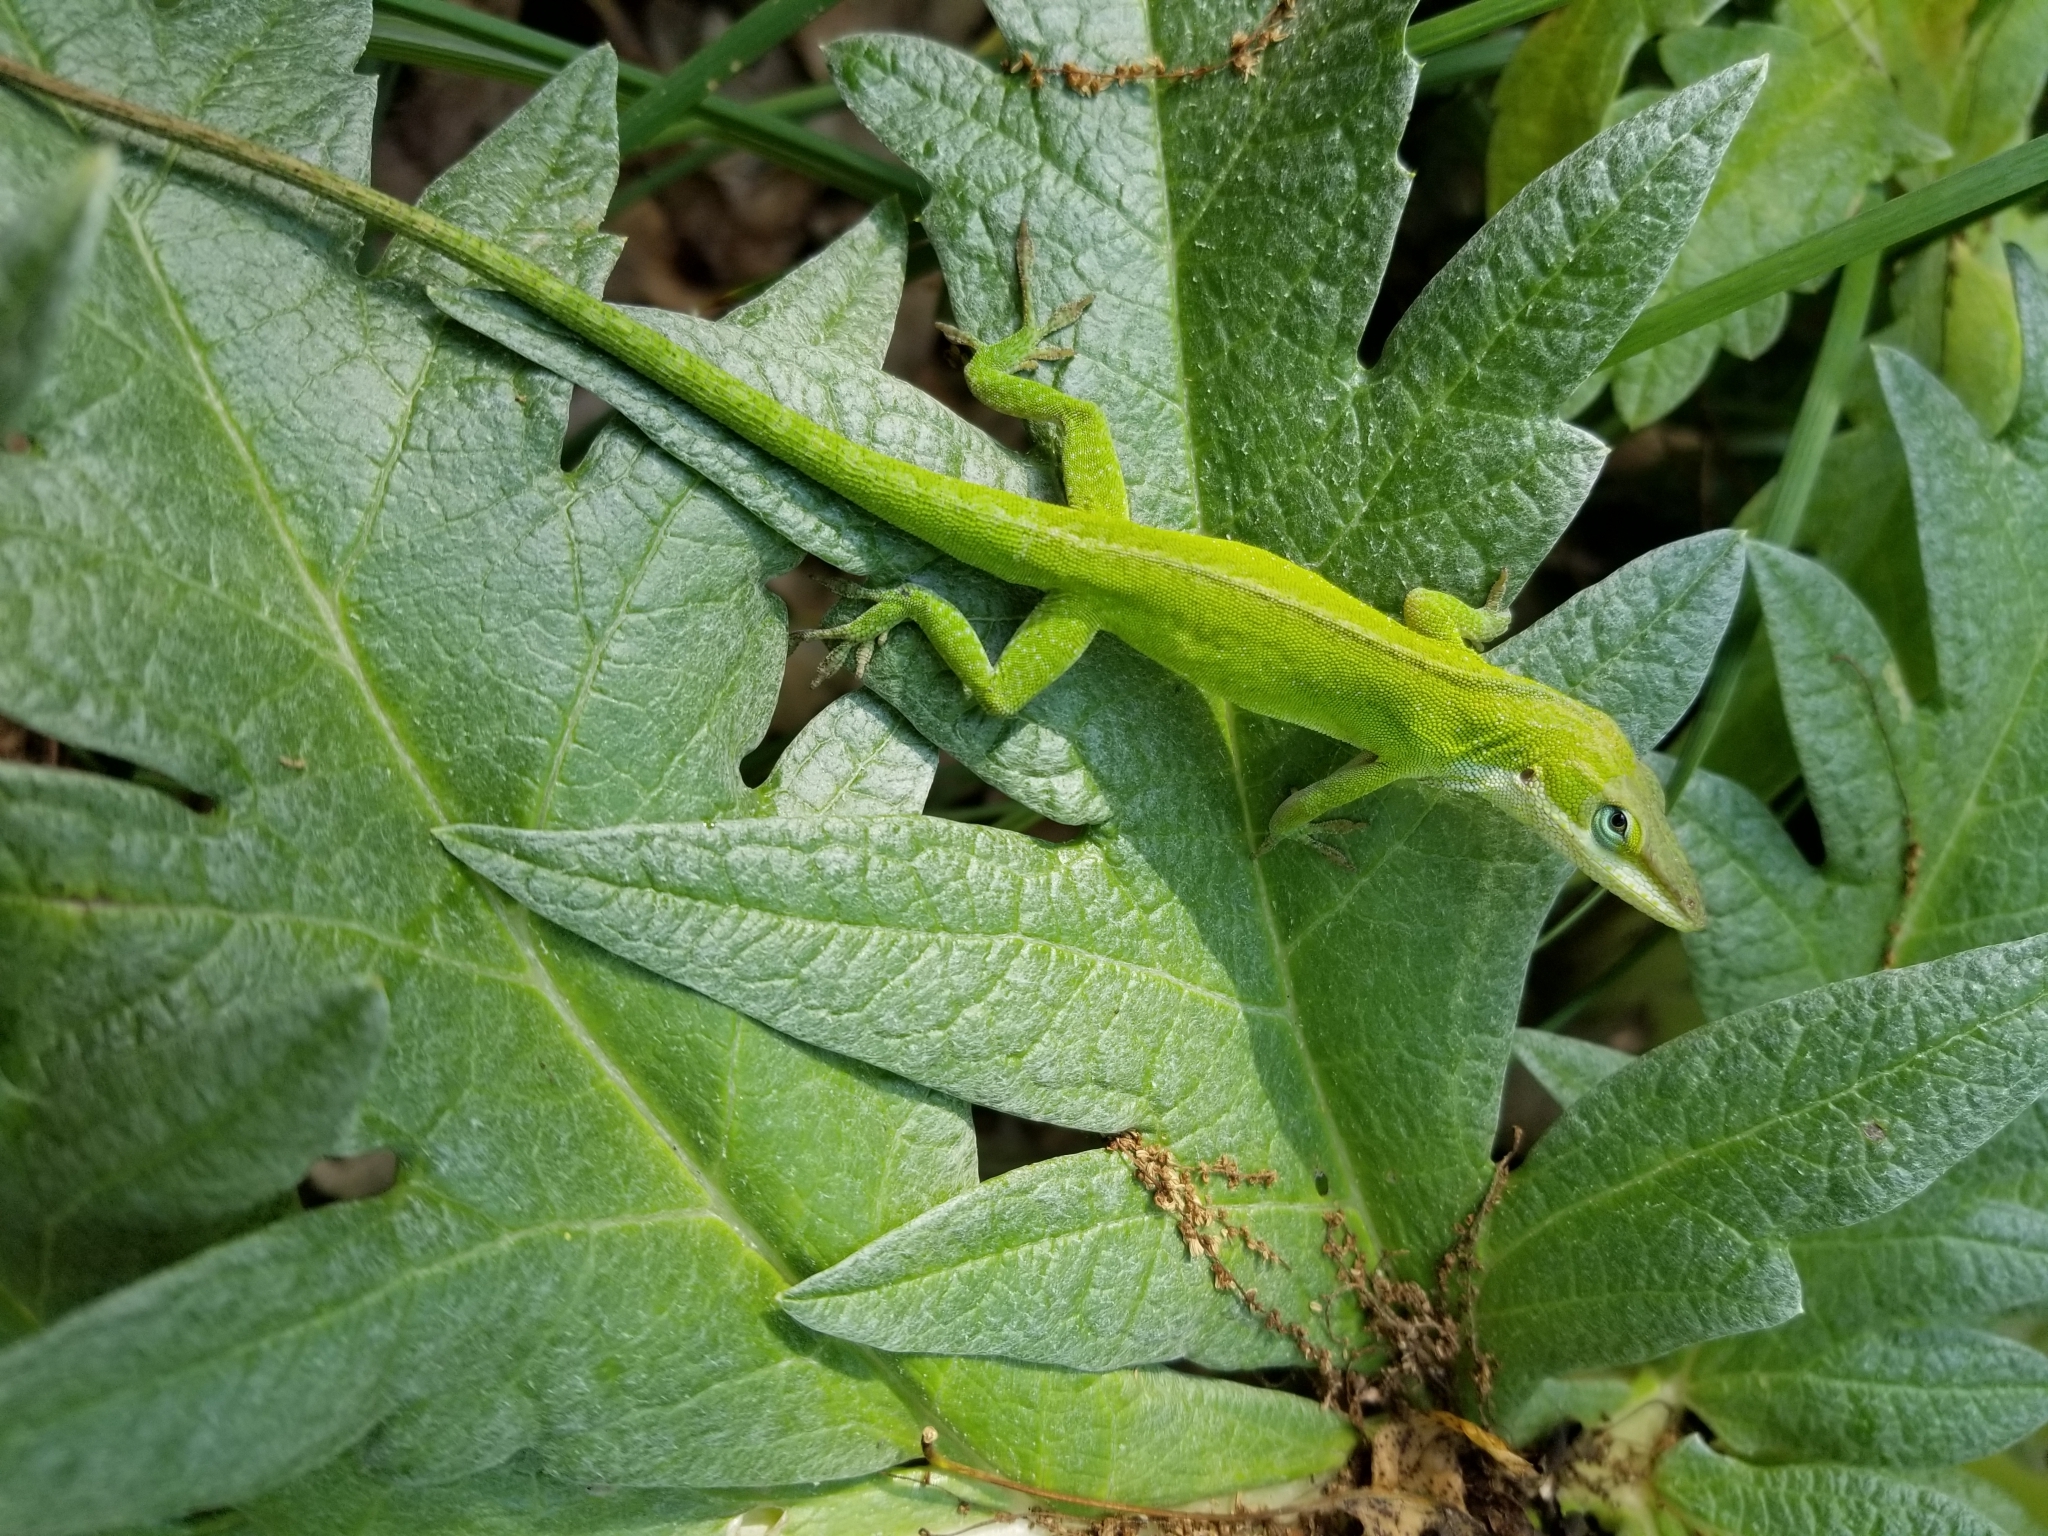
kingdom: Animalia
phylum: Chordata
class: Squamata
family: Dactyloidae
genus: Anolis
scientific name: Anolis carolinensis
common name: Green anole
